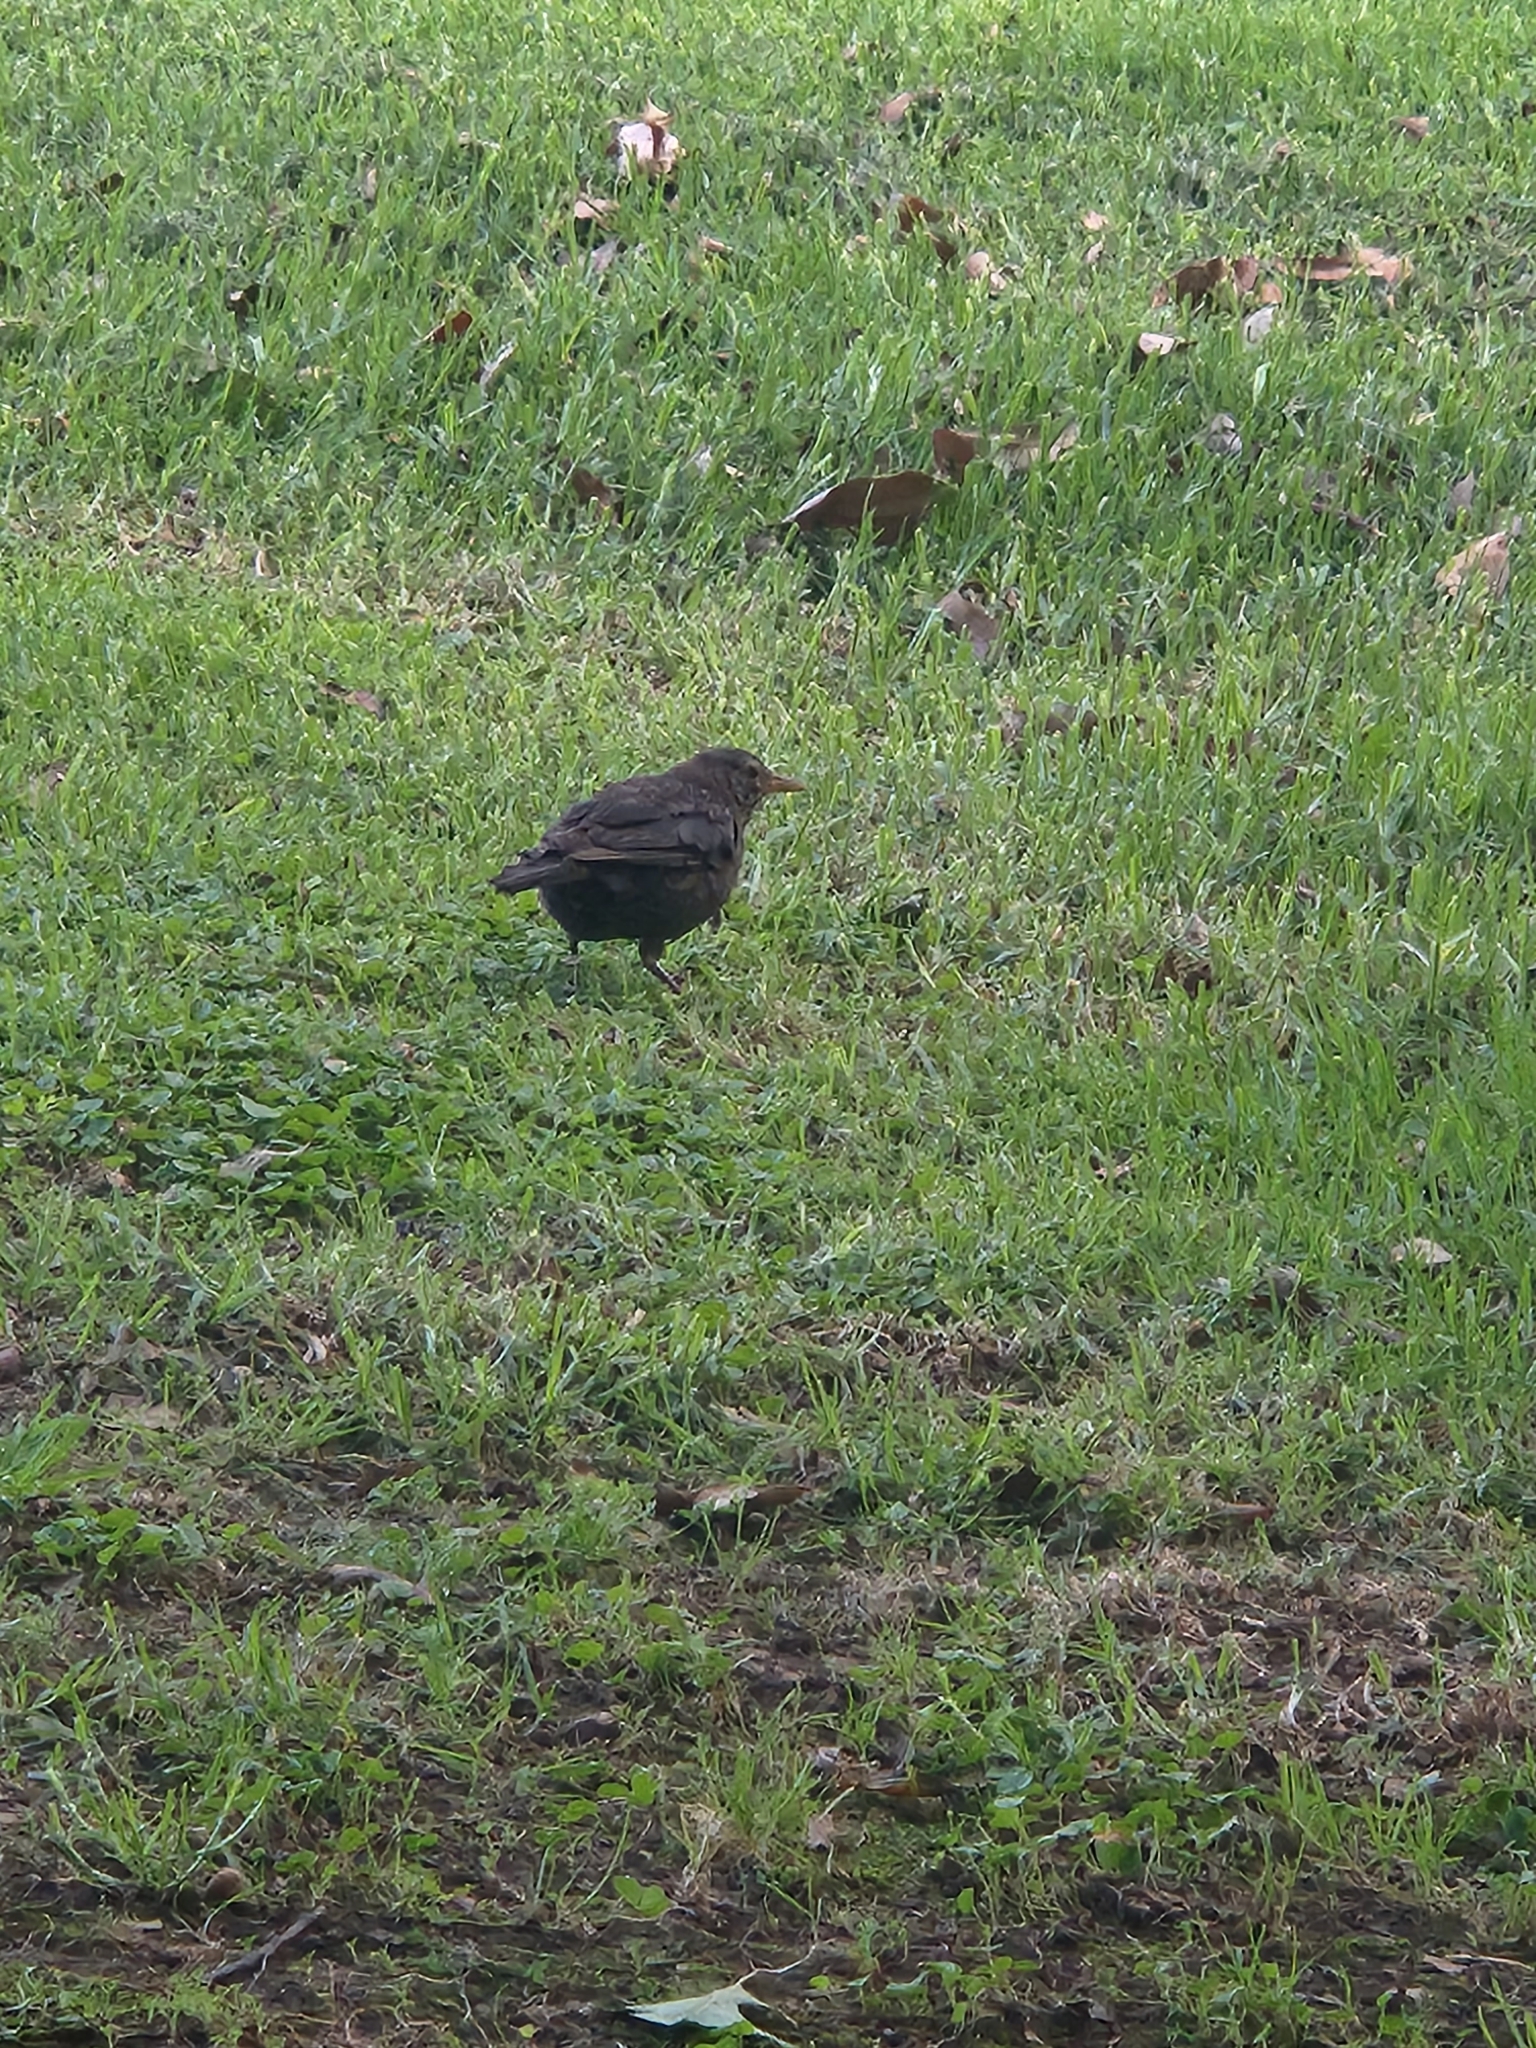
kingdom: Animalia
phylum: Chordata
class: Aves
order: Passeriformes
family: Turdidae
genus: Turdus
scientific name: Turdus merula
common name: Common blackbird
